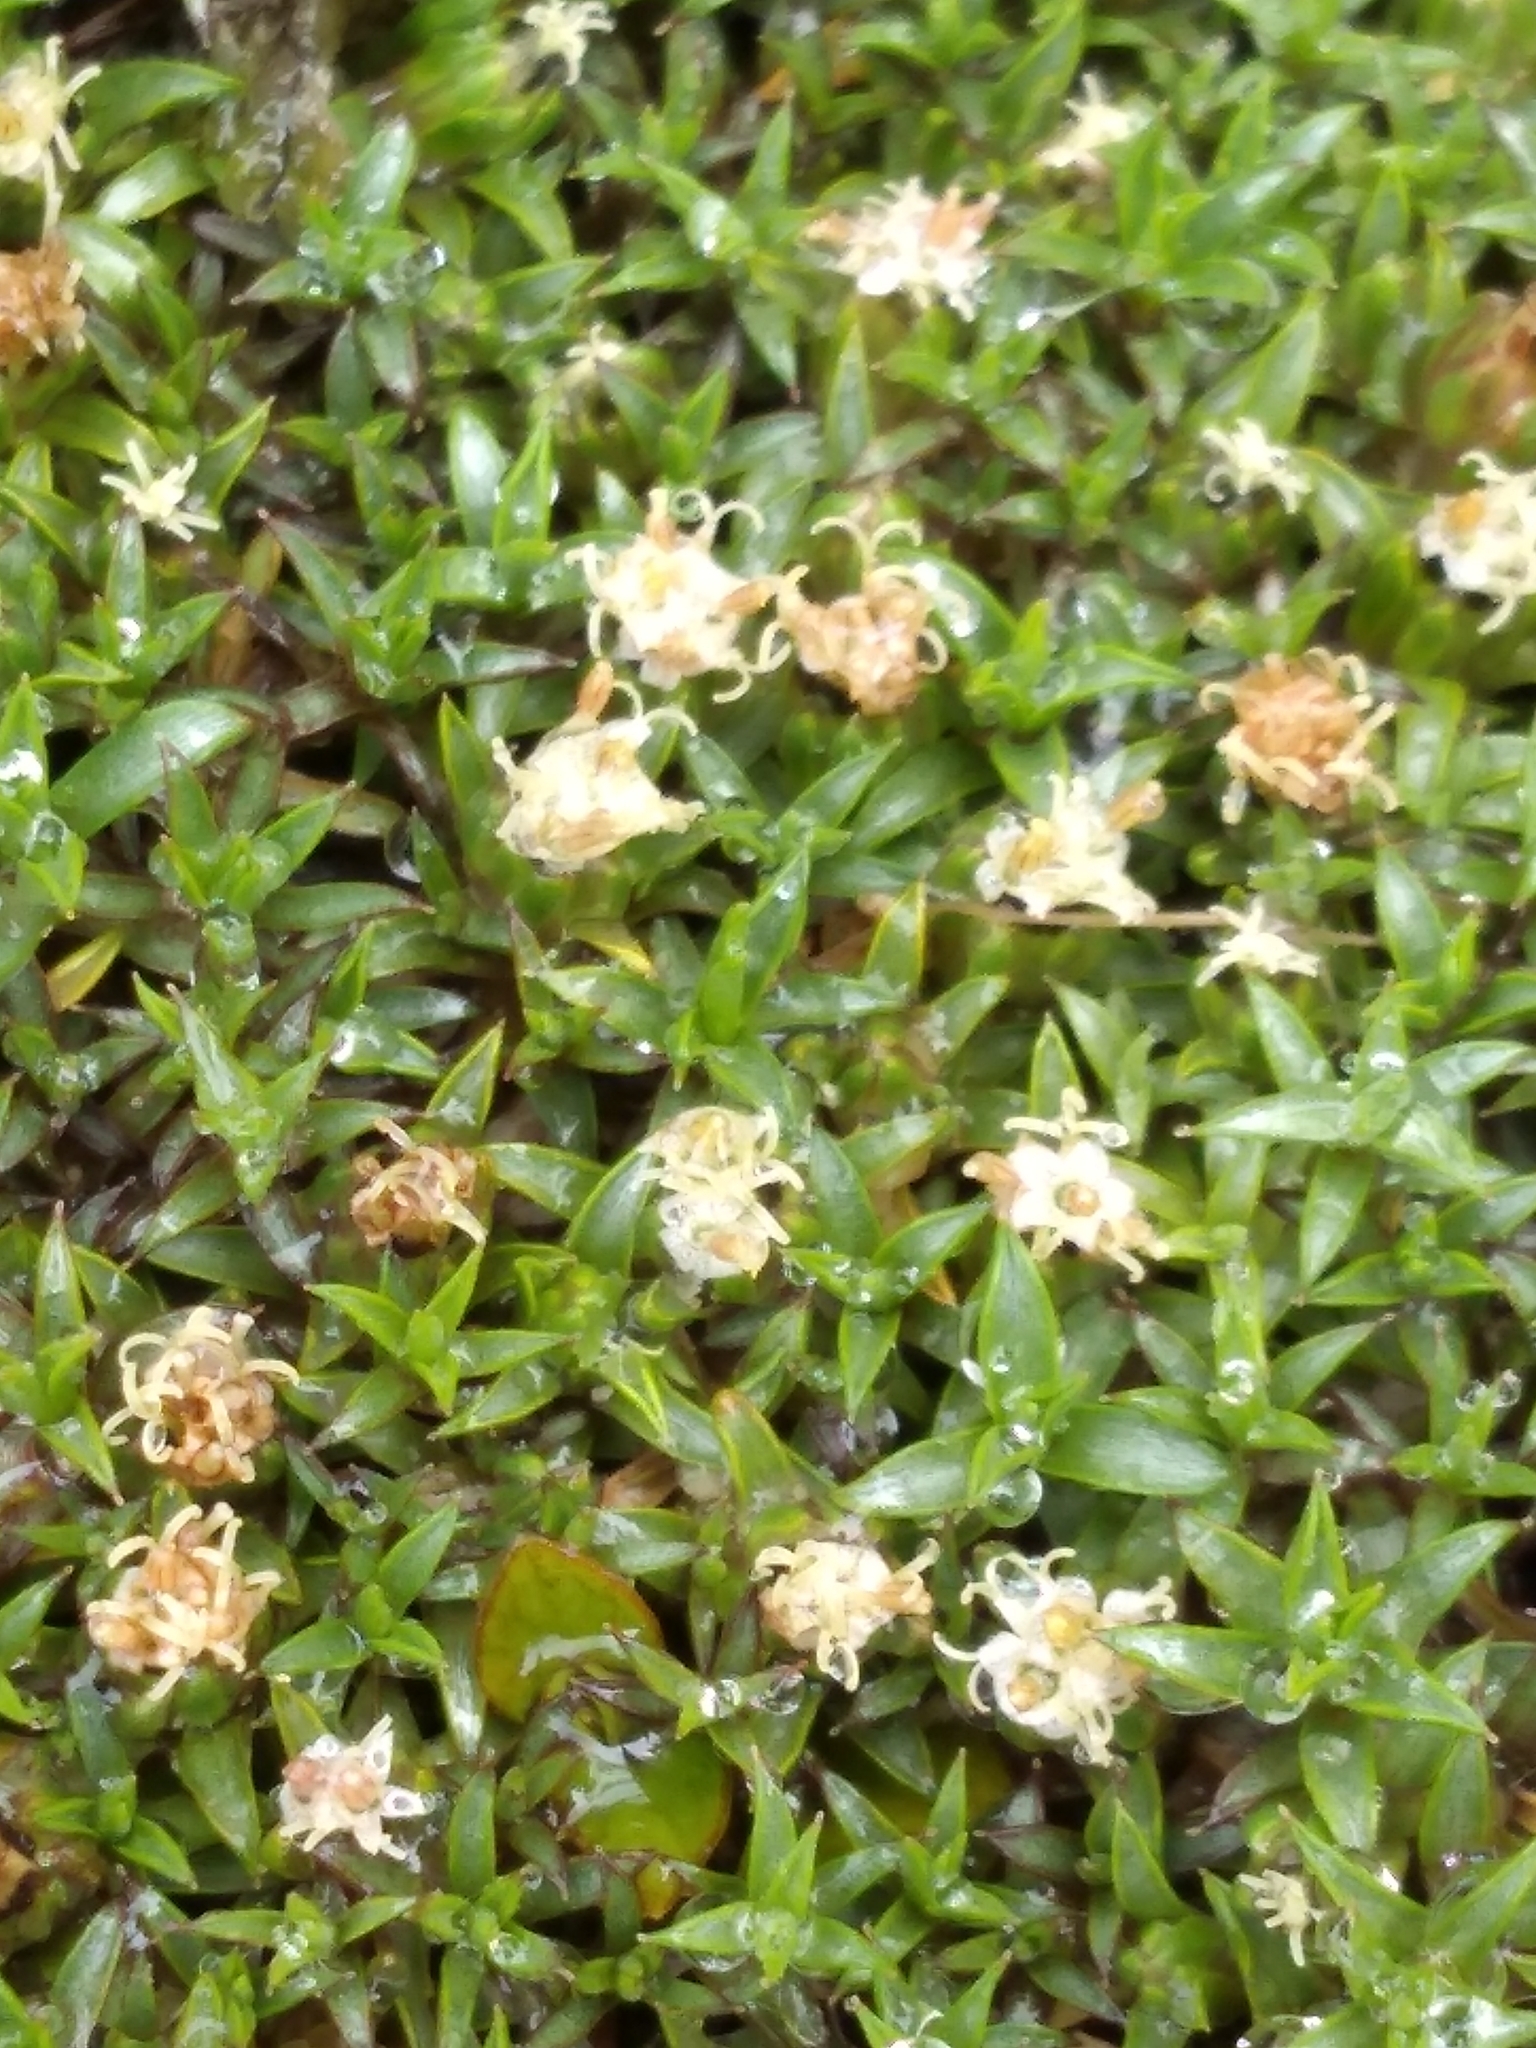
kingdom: Plantae
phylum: Tracheophyta
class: Magnoliopsida
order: Asterales
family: Asteraceae
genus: Raoulia
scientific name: Raoulia tenuicaulis
